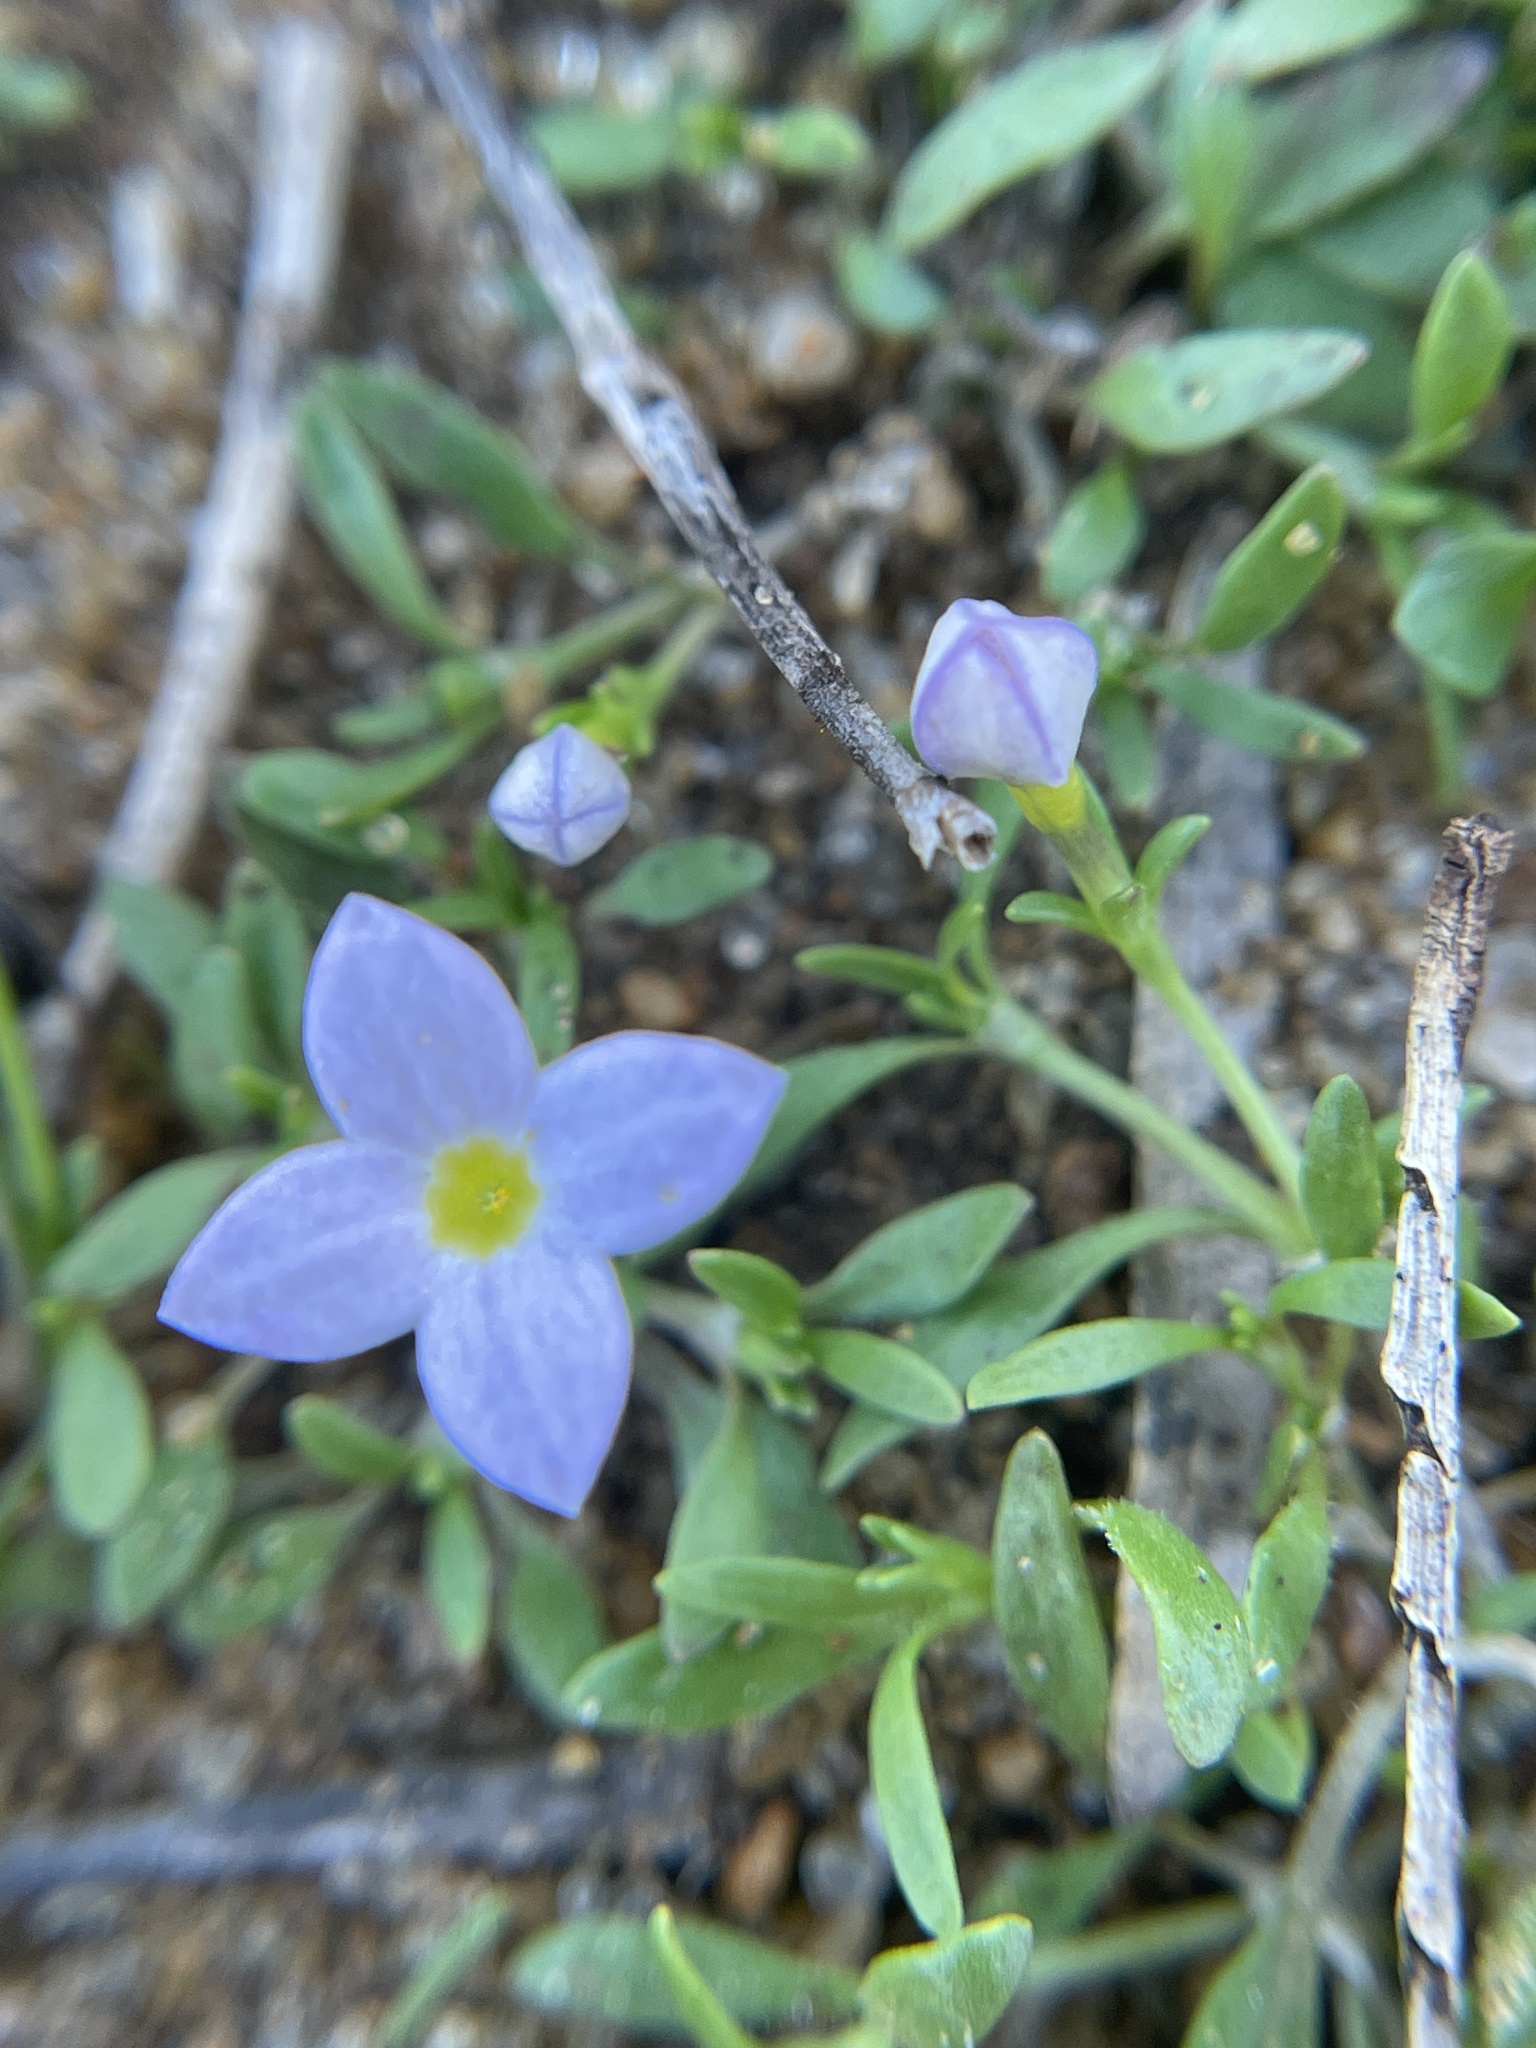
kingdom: Plantae
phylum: Tracheophyta
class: Magnoliopsida
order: Gentianales
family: Rubiaceae
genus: Houstonia
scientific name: Houstonia rosea
